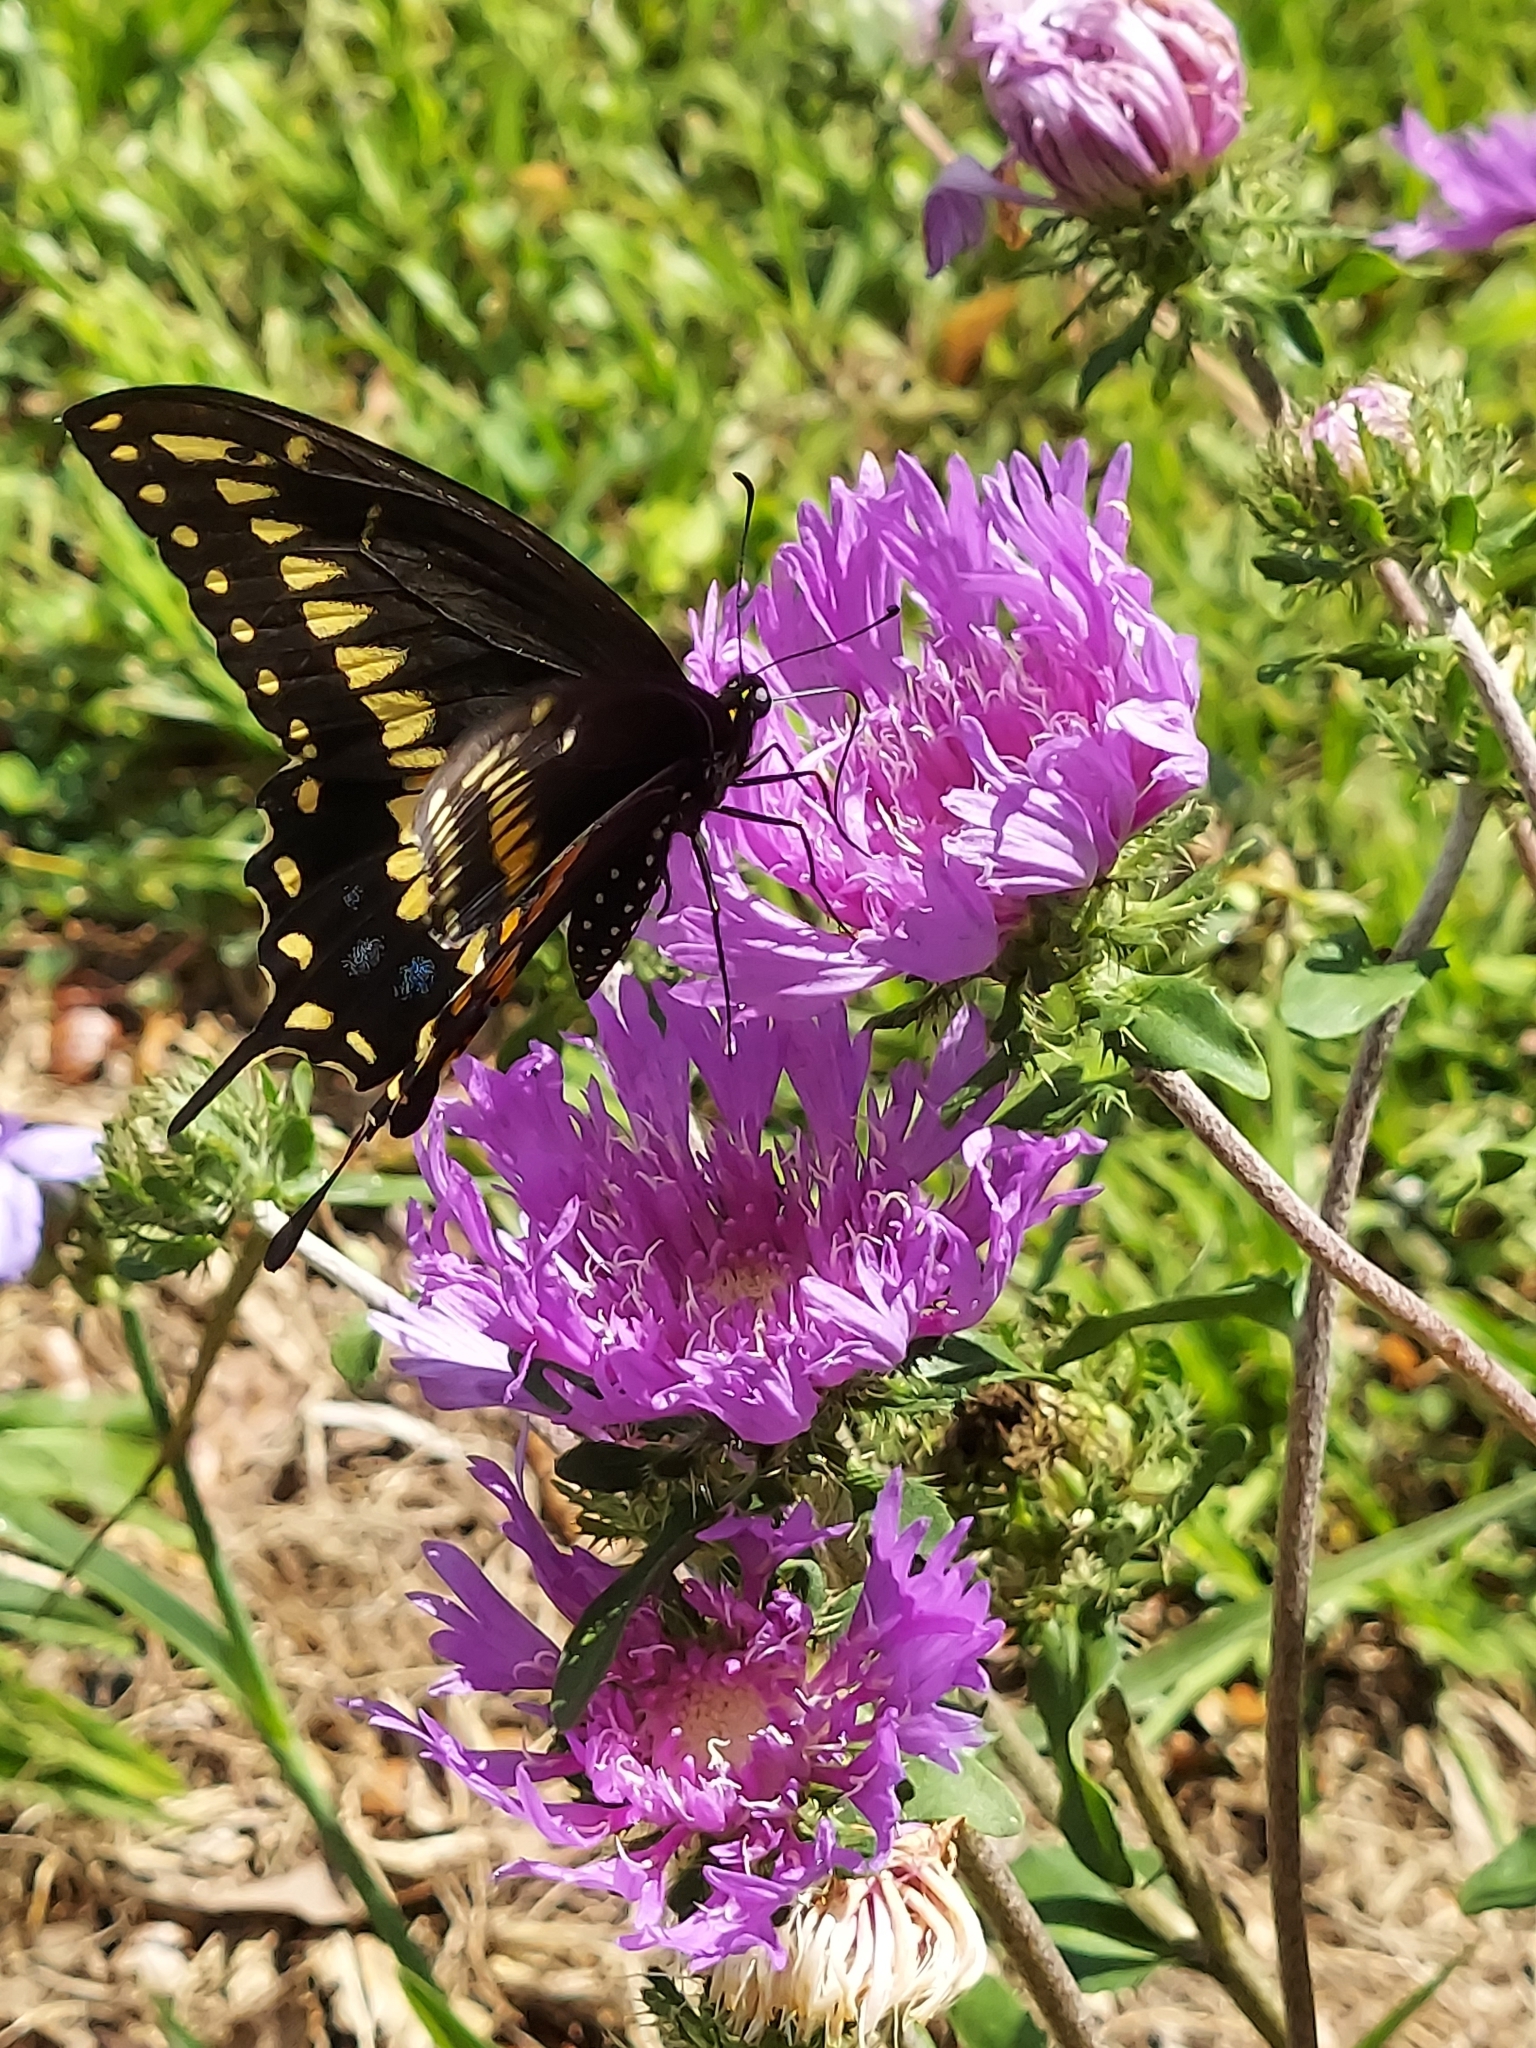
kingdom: Animalia
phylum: Arthropoda
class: Insecta
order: Lepidoptera
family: Papilionidae
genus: Papilio
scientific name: Papilio polyxenes
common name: Black swallowtail
